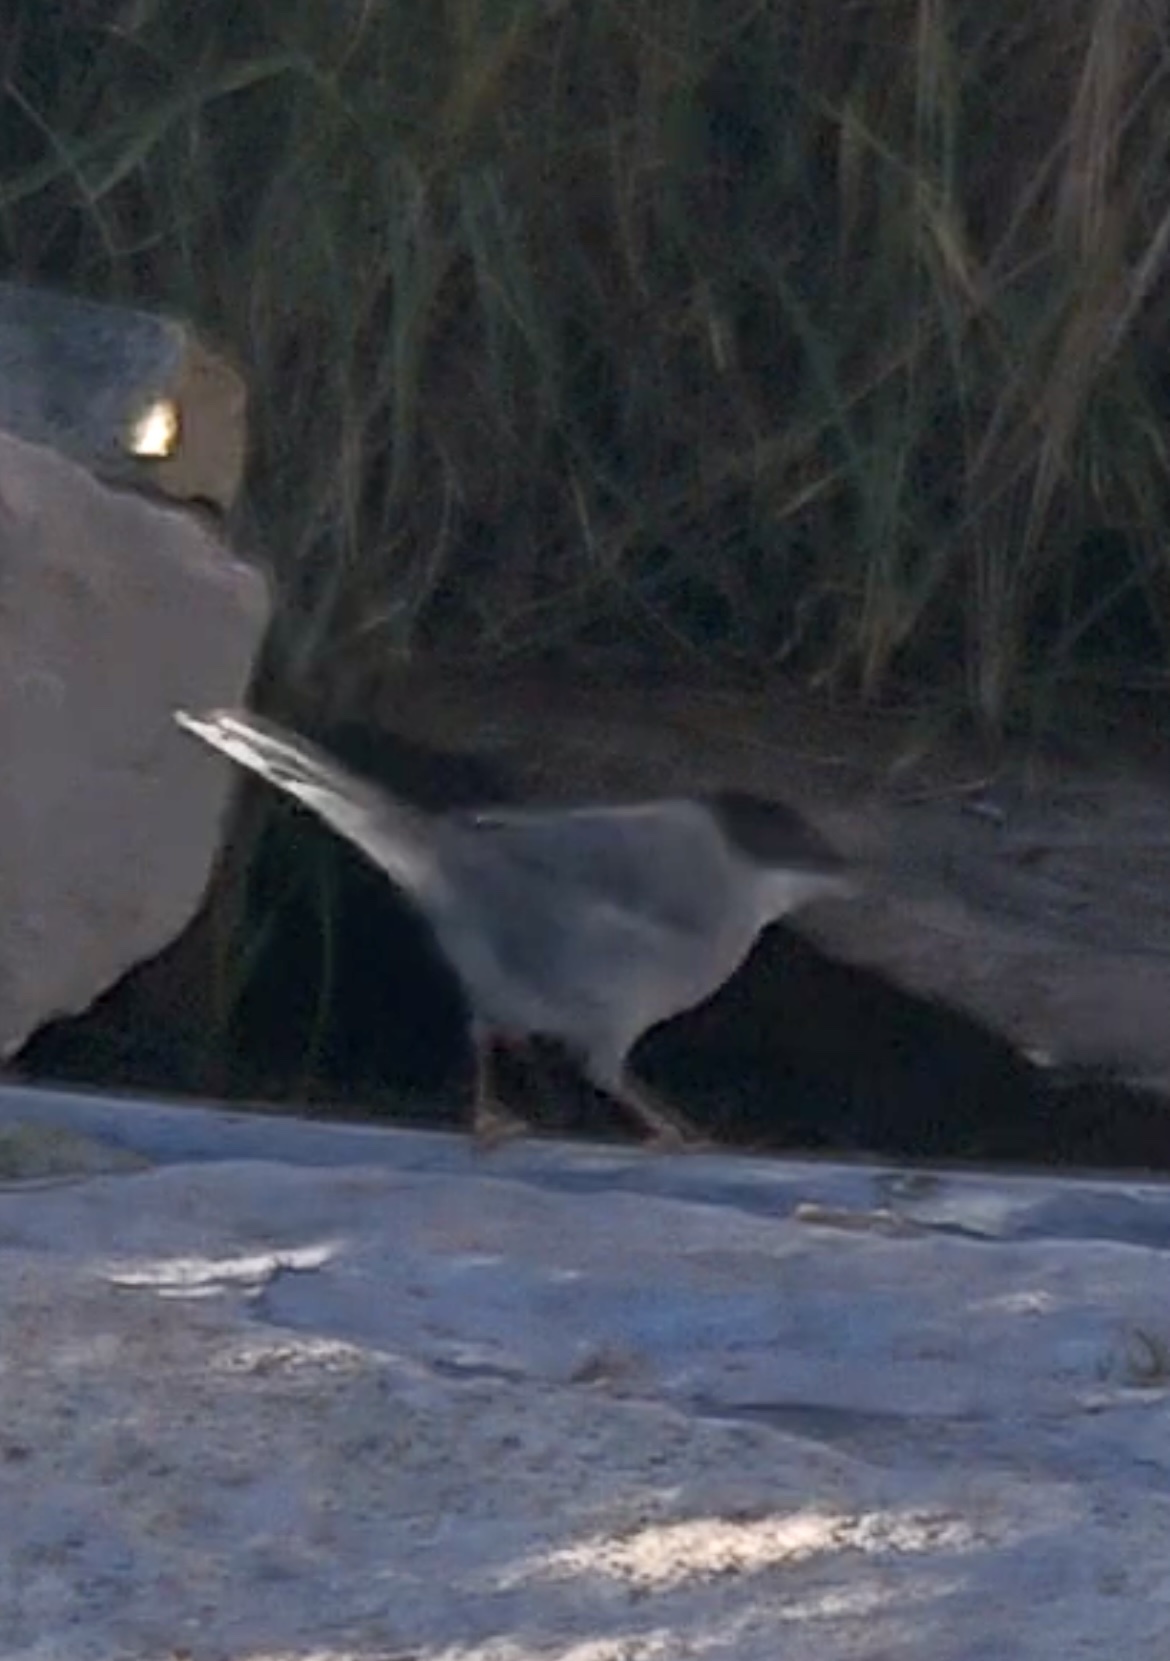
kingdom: Animalia
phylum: Chordata
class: Aves
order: Passeriformes
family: Sylviidae
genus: Curruca
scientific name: Curruca melanocephala
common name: Sardinian warbler
